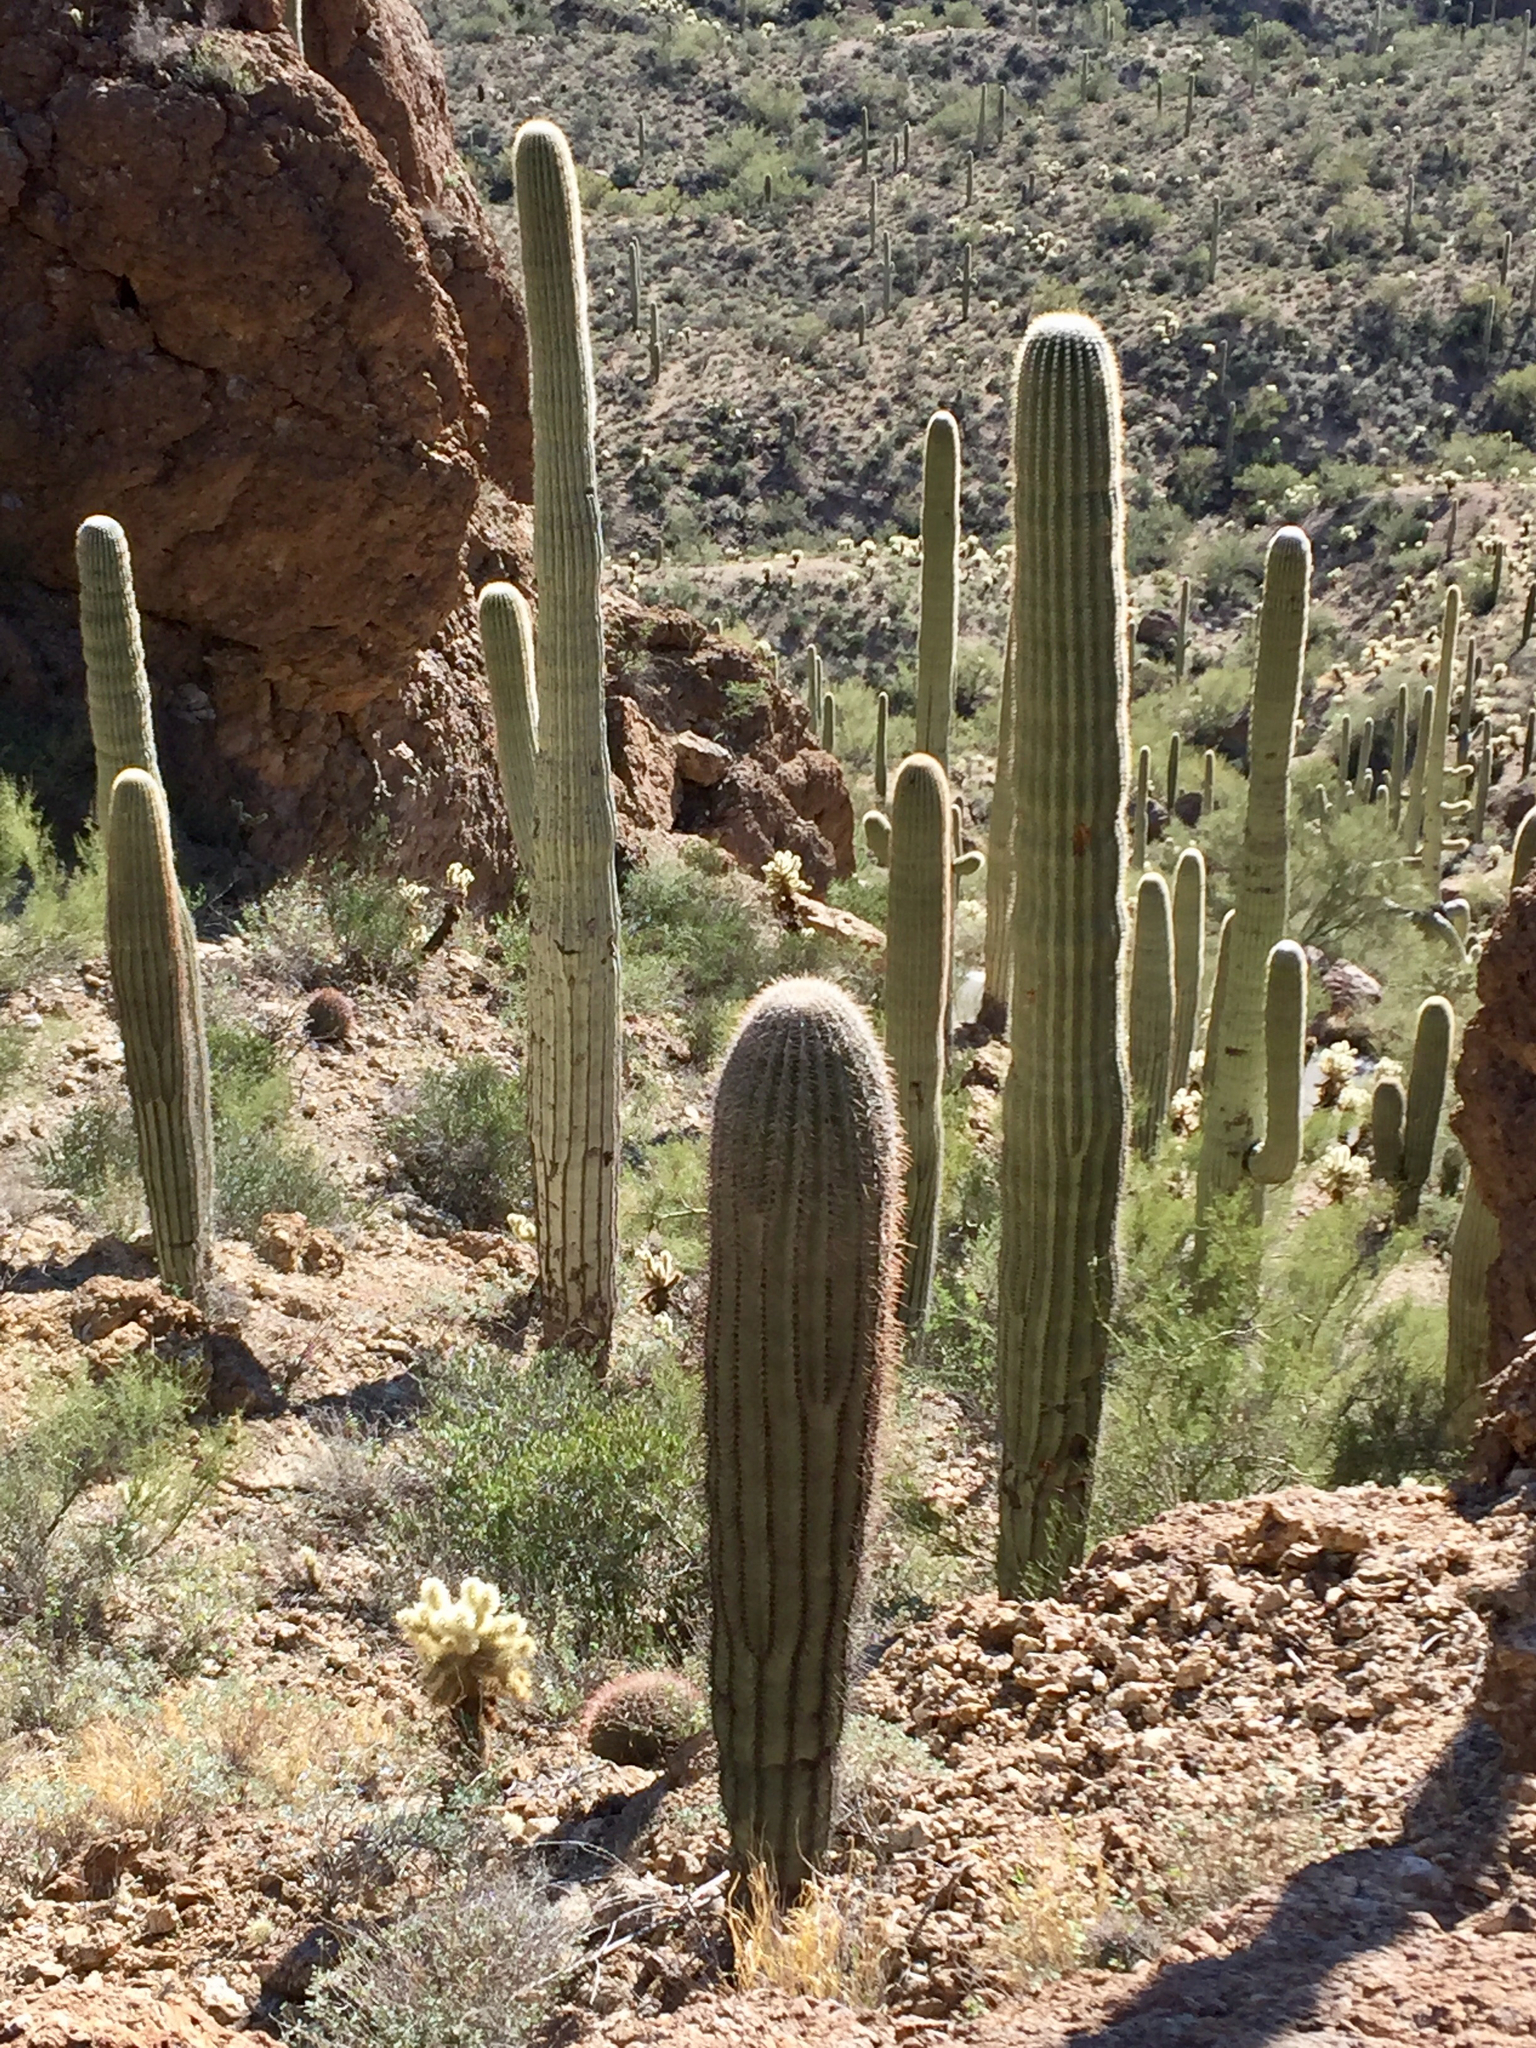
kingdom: Plantae
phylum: Tracheophyta
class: Magnoliopsida
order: Caryophyllales
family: Cactaceae
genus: Carnegiea
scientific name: Carnegiea gigantea
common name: Saguaro
